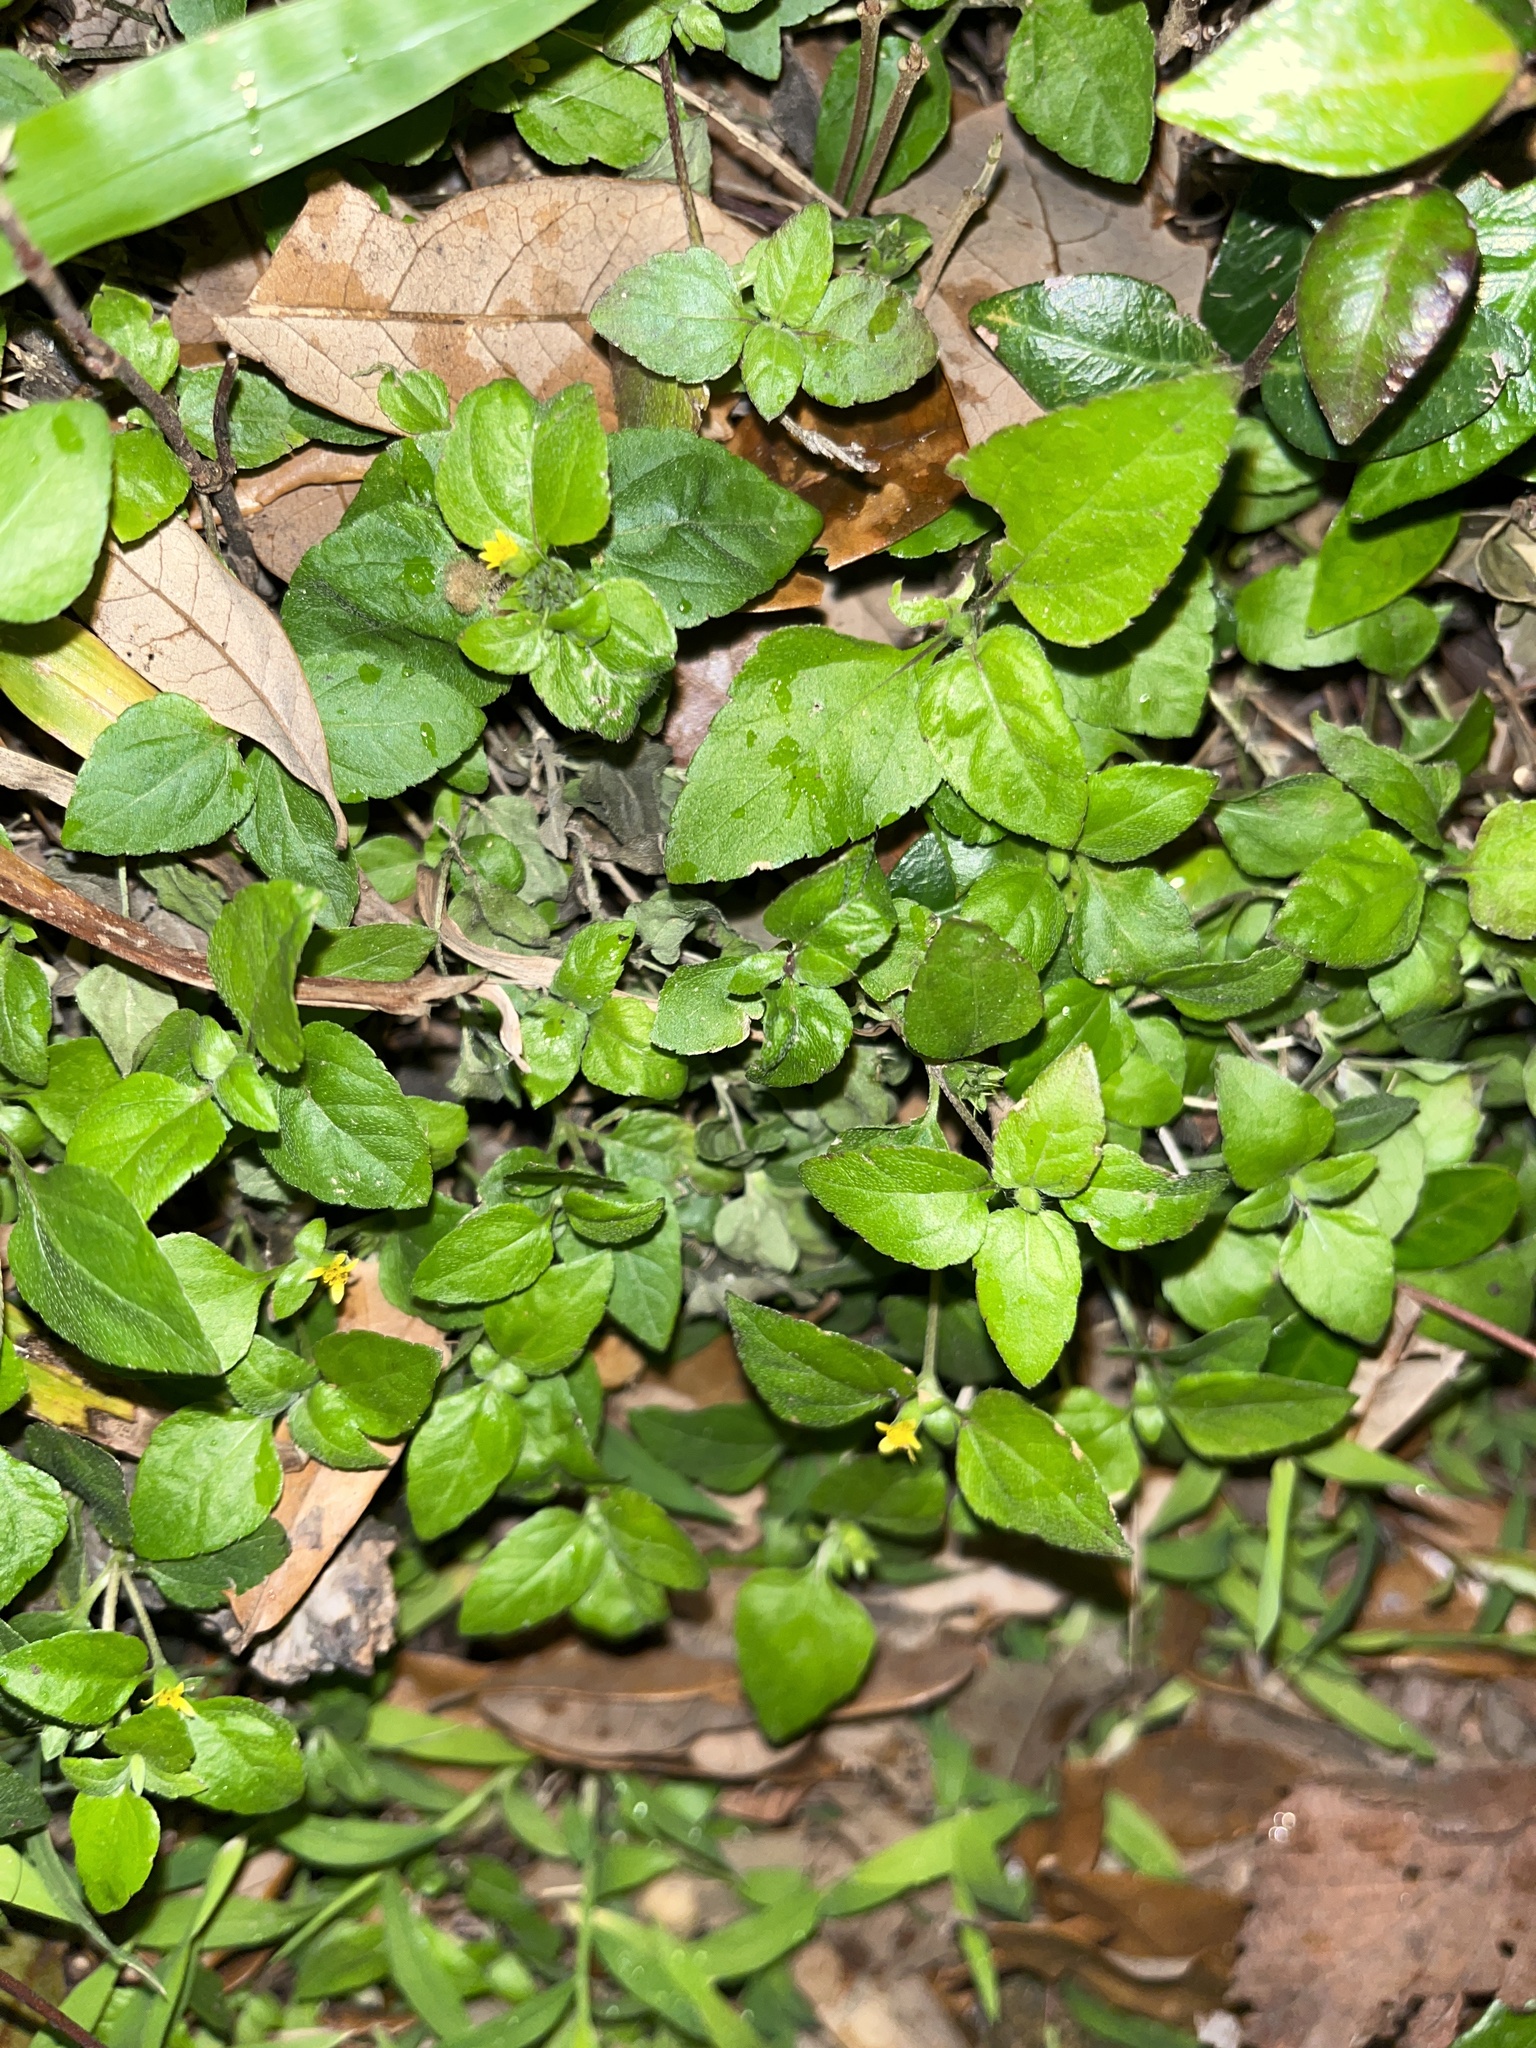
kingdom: Plantae
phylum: Tracheophyta
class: Magnoliopsida
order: Asterales
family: Asteraceae
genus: Calyptocarpus
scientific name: Calyptocarpus vialis
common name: Straggler daisy
